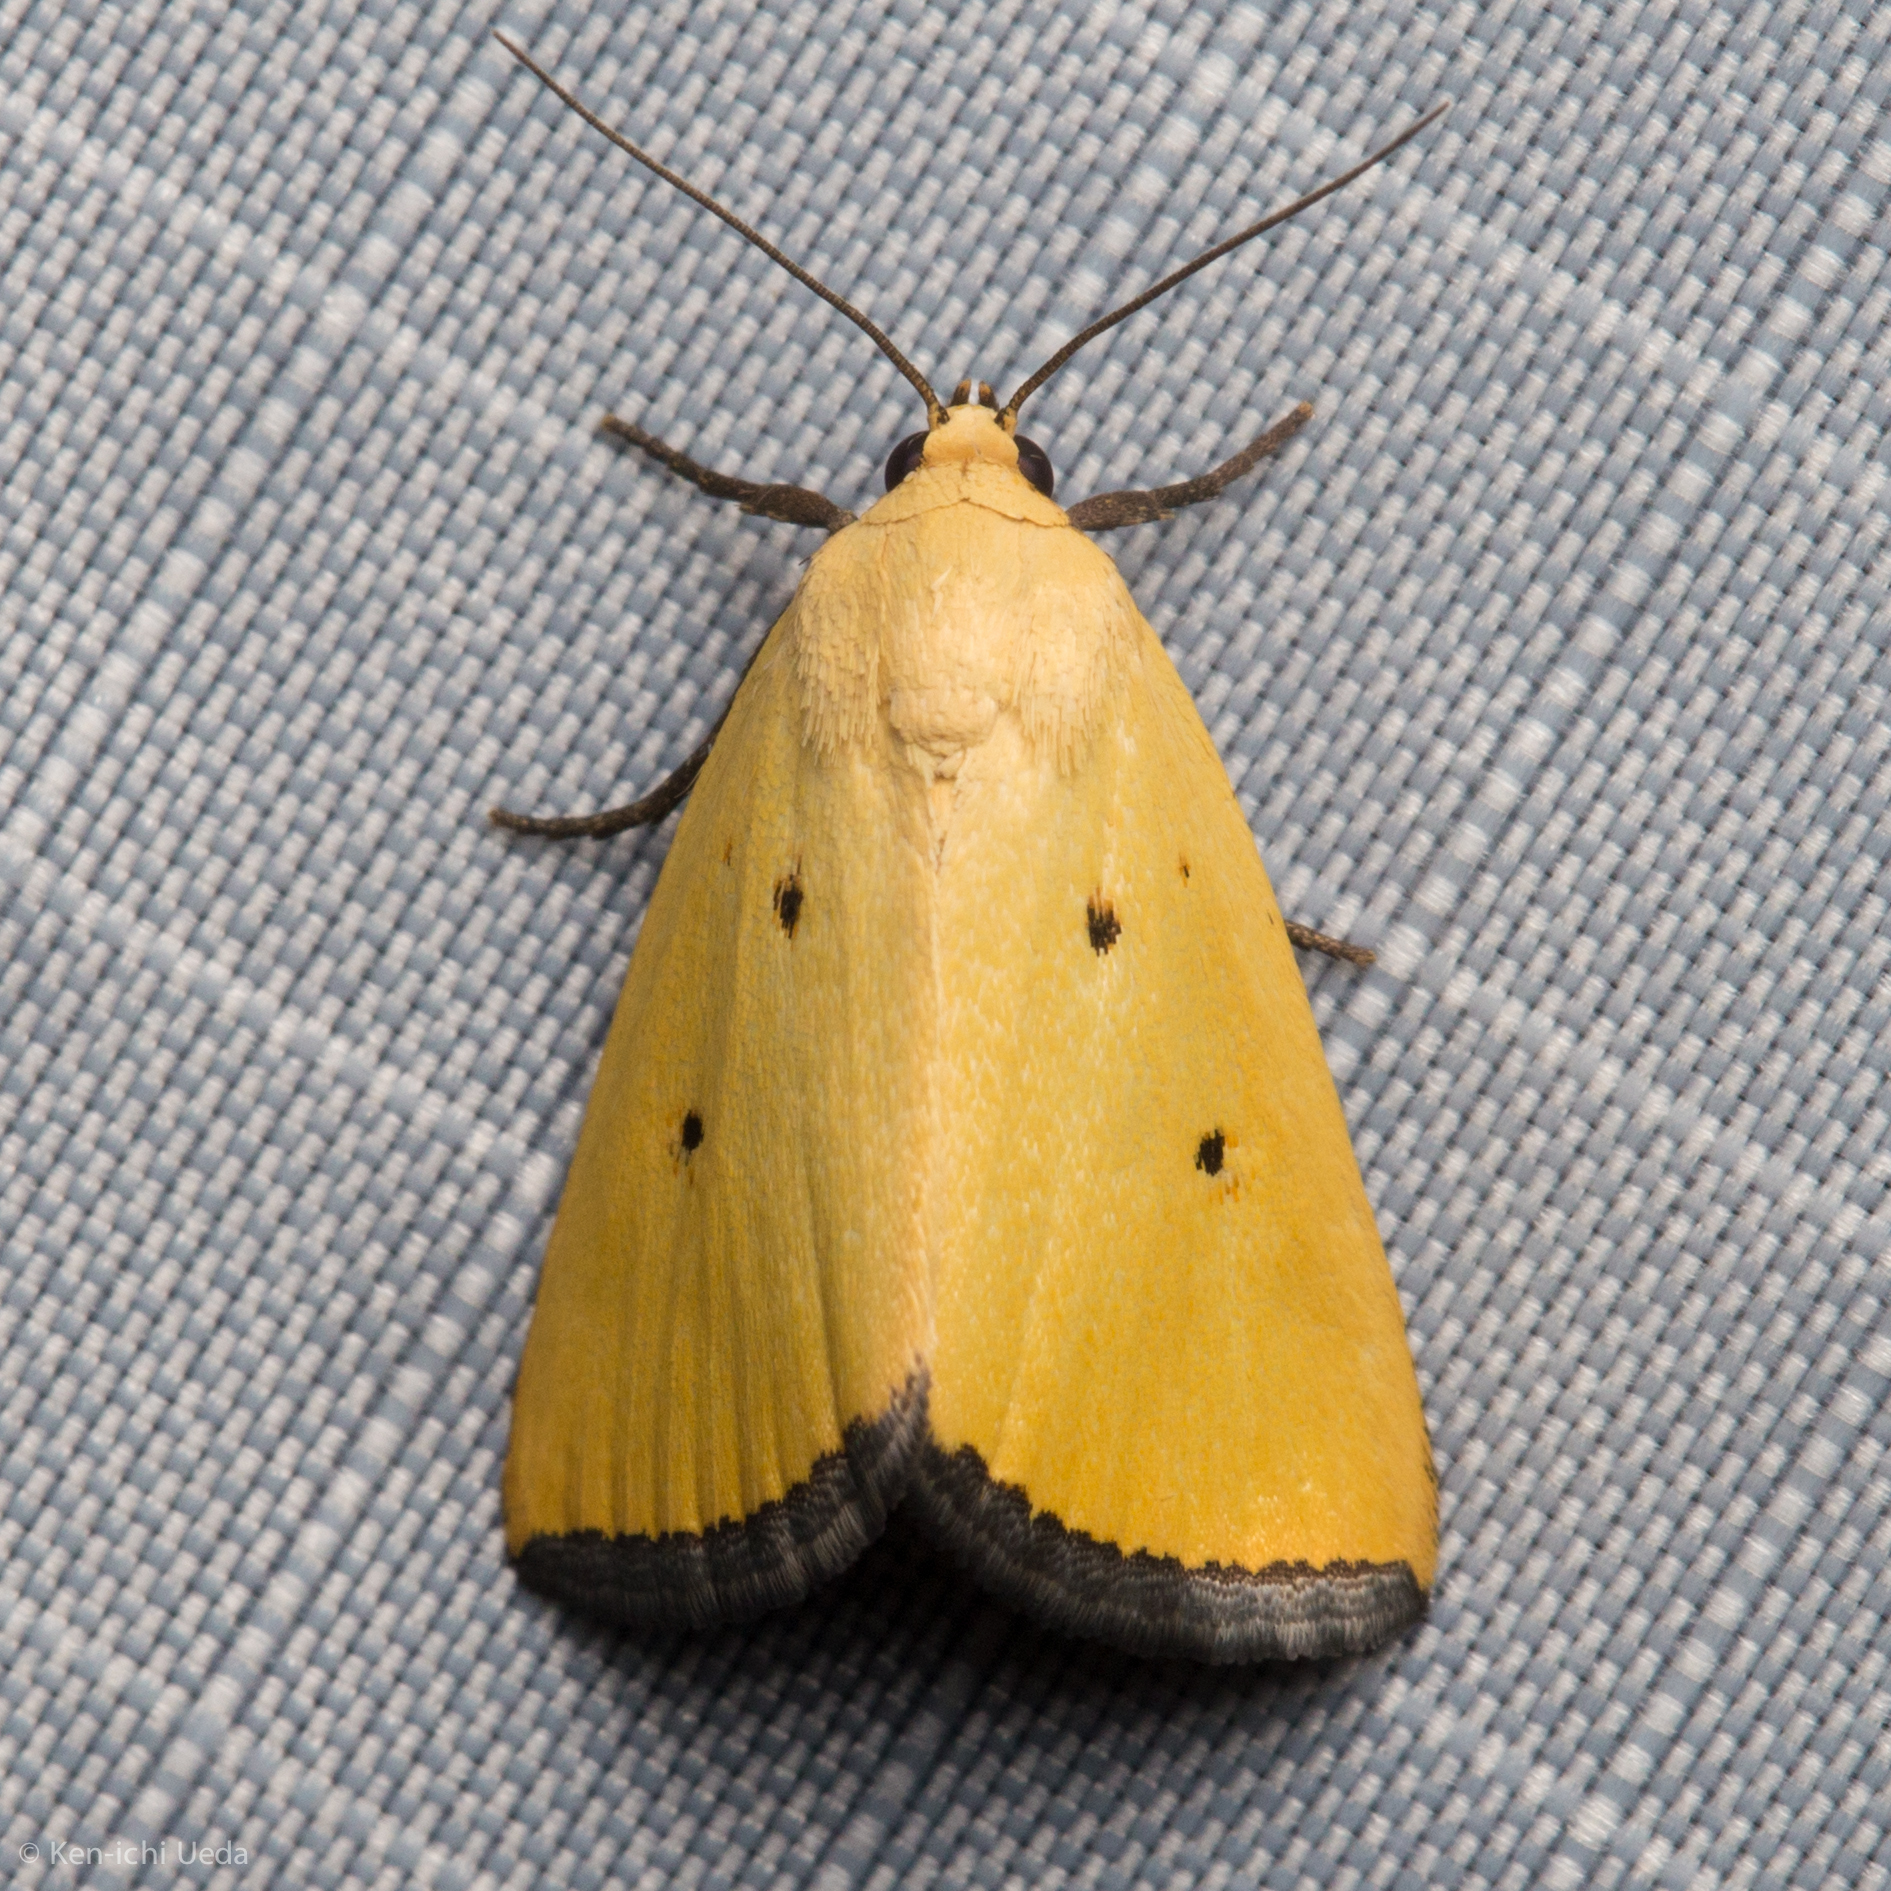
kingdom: Animalia
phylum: Arthropoda
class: Insecta
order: Lepidoptera
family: Noctuidae
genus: Marimatha
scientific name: Marimatha nigrofimbria
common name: Black-bordered lemon moth
